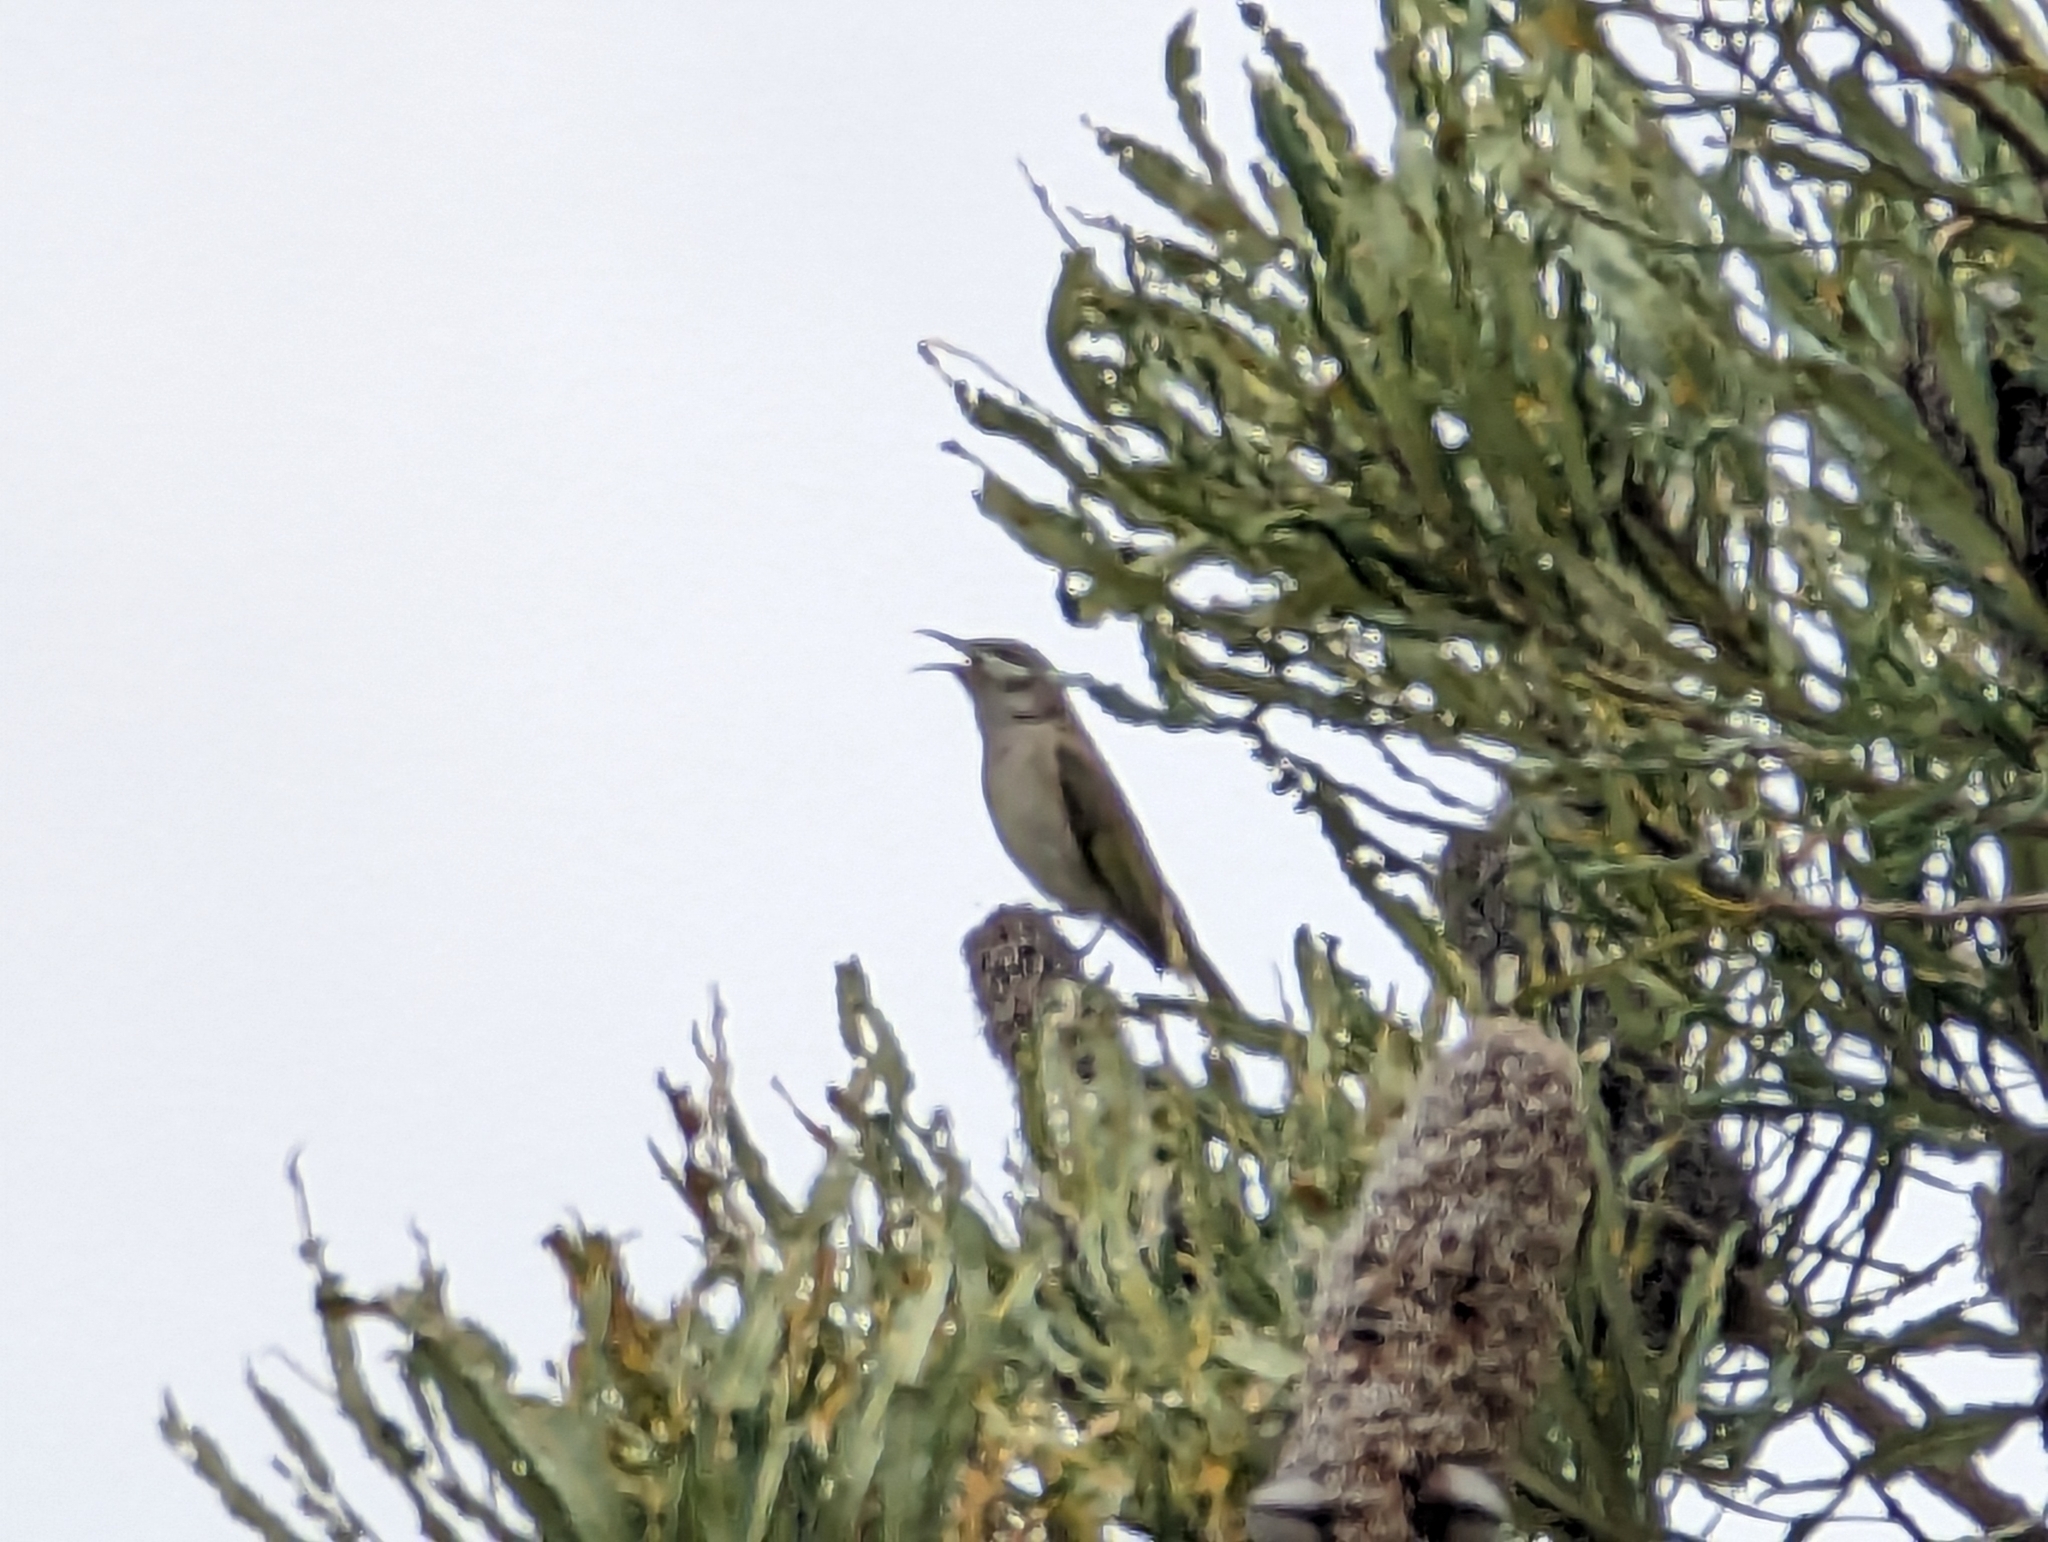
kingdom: Animalia
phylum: Chordata
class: Aves
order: Passeriformes
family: Meliphagidae
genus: Lichmera
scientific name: Lichmera indistincta
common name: Brown honeyeater
